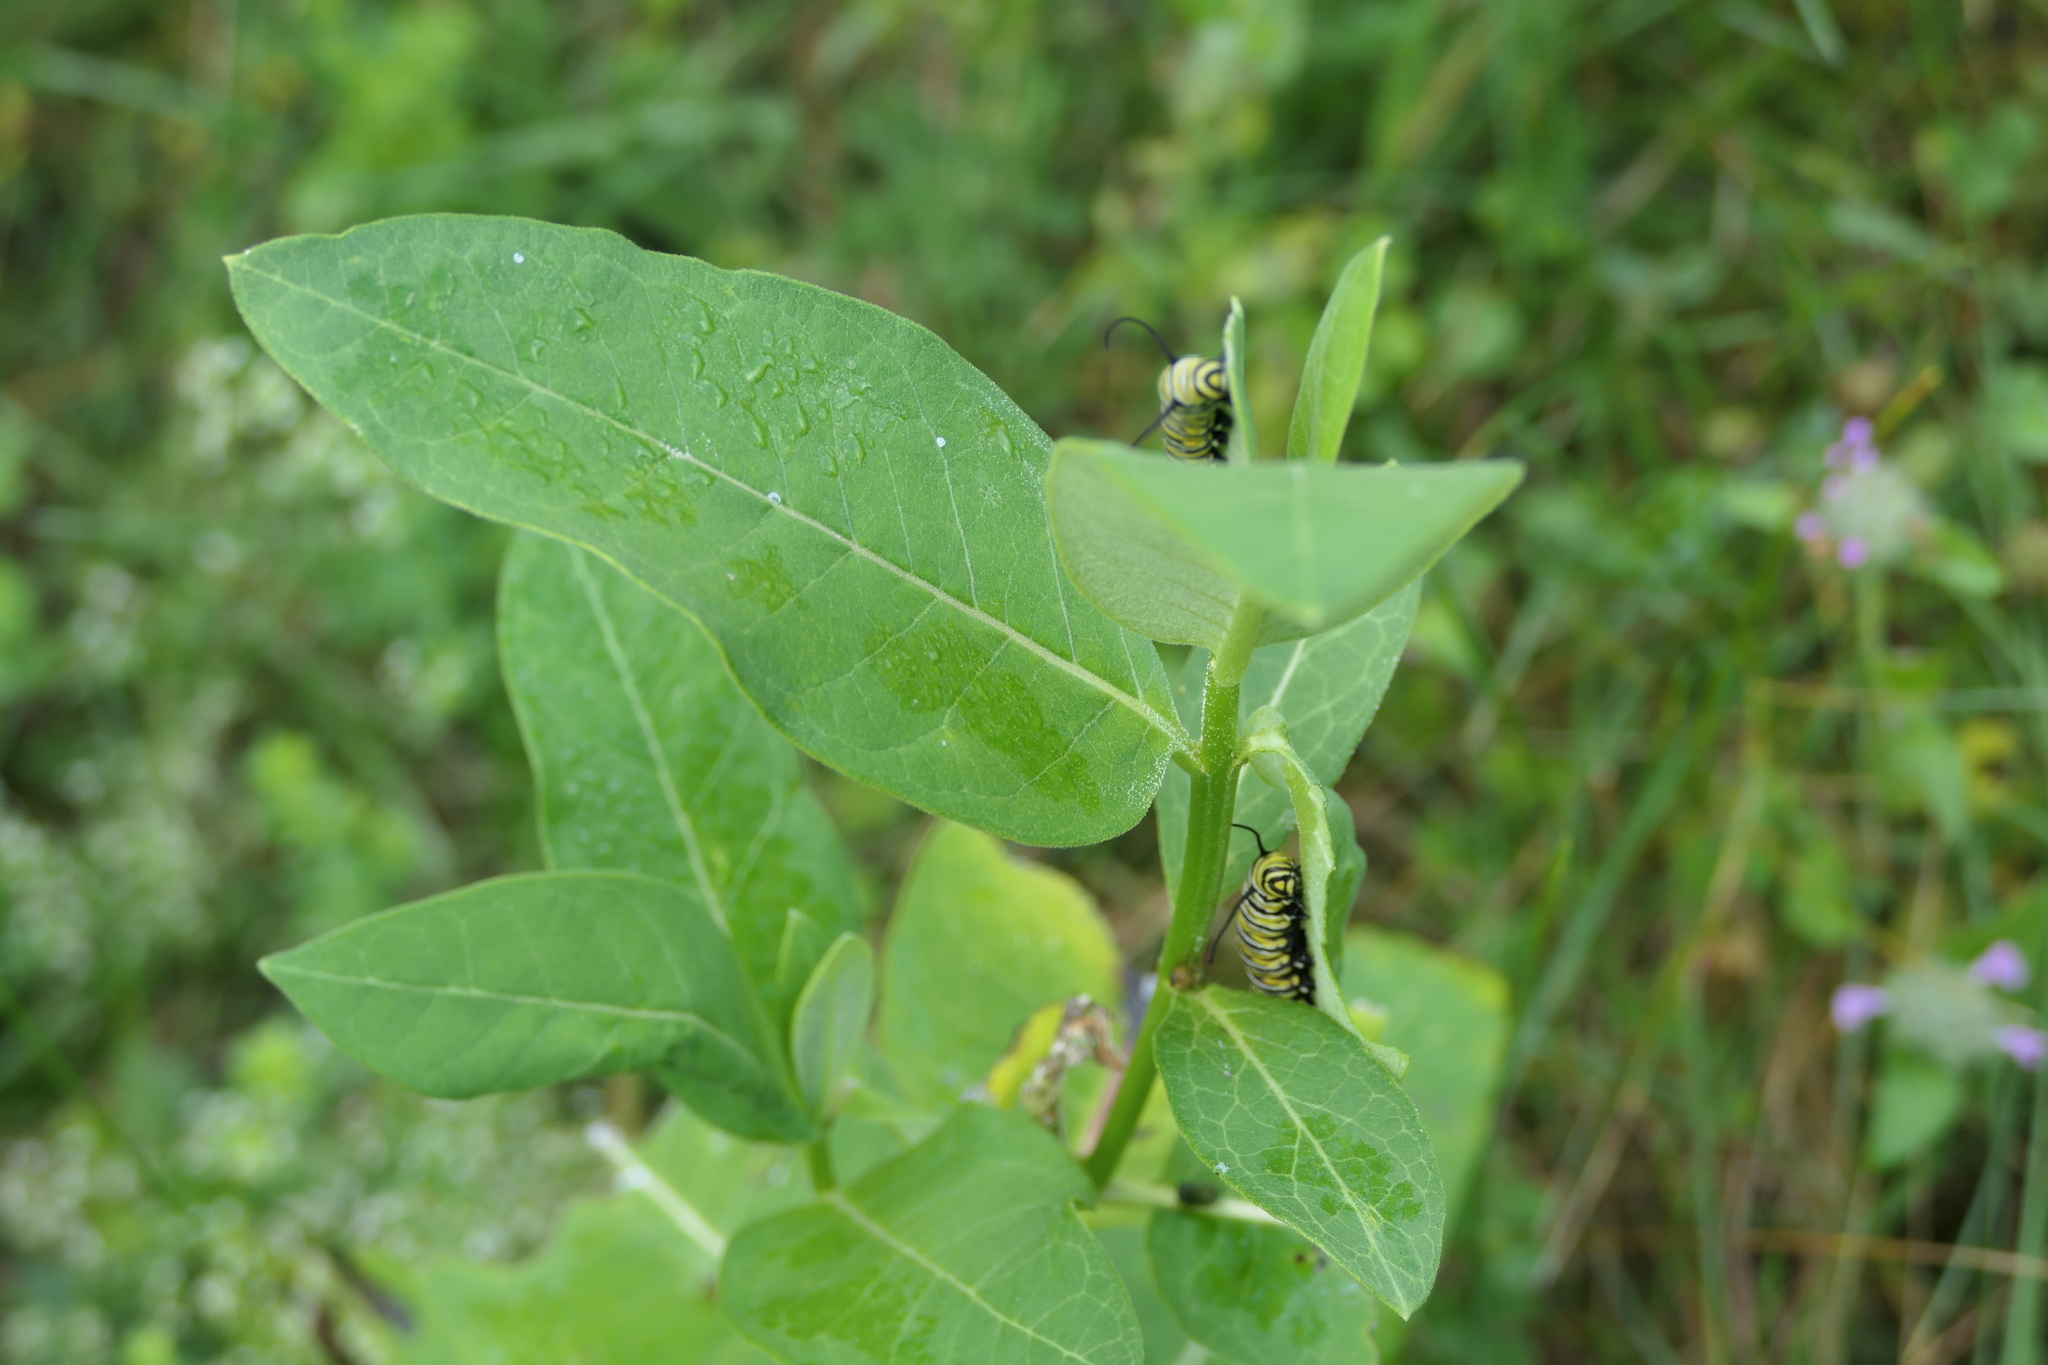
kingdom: Animalia
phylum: Arthropoda
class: Insecta
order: Lepidoptera
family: Nymphalidae
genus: Danaus
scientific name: Danaus plexippus
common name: Monarch
